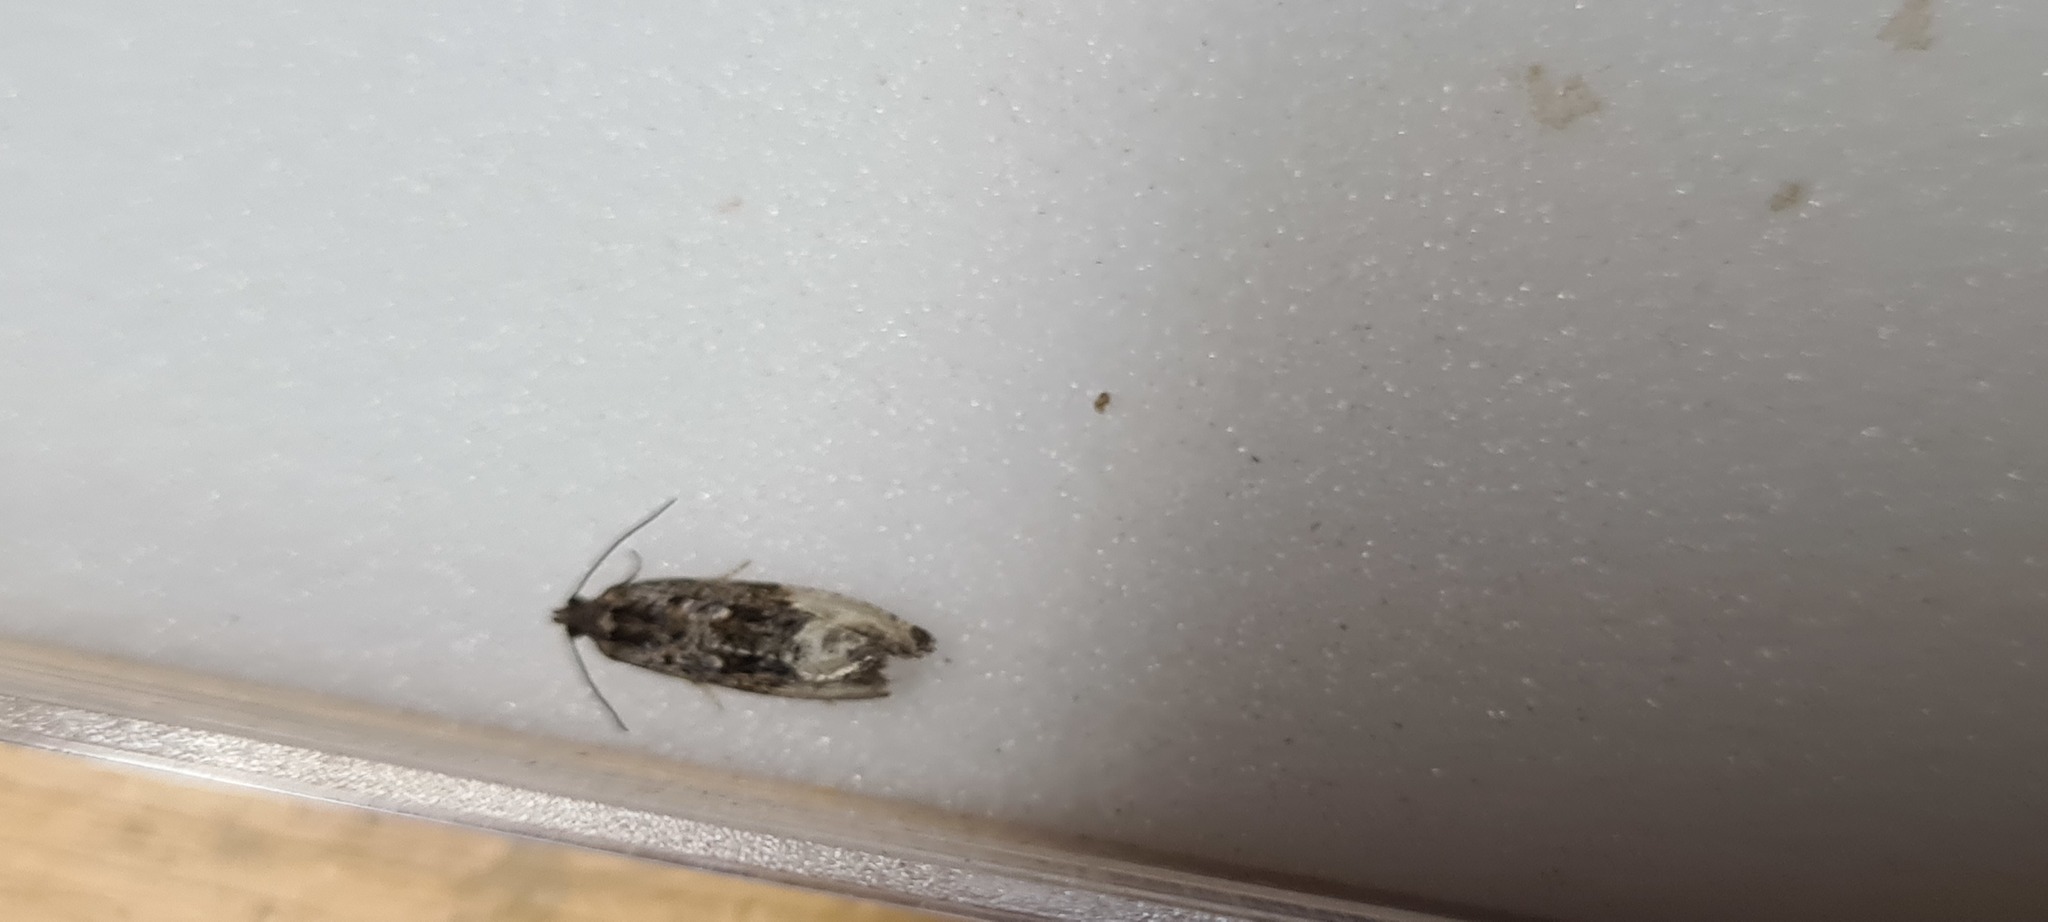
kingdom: Animalia
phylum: Arthropoda
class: Insecta
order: Lepidoptera
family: Tortricidae
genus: Hedya
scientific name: Hedya nubiferana
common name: Marbled orchard tortrix
